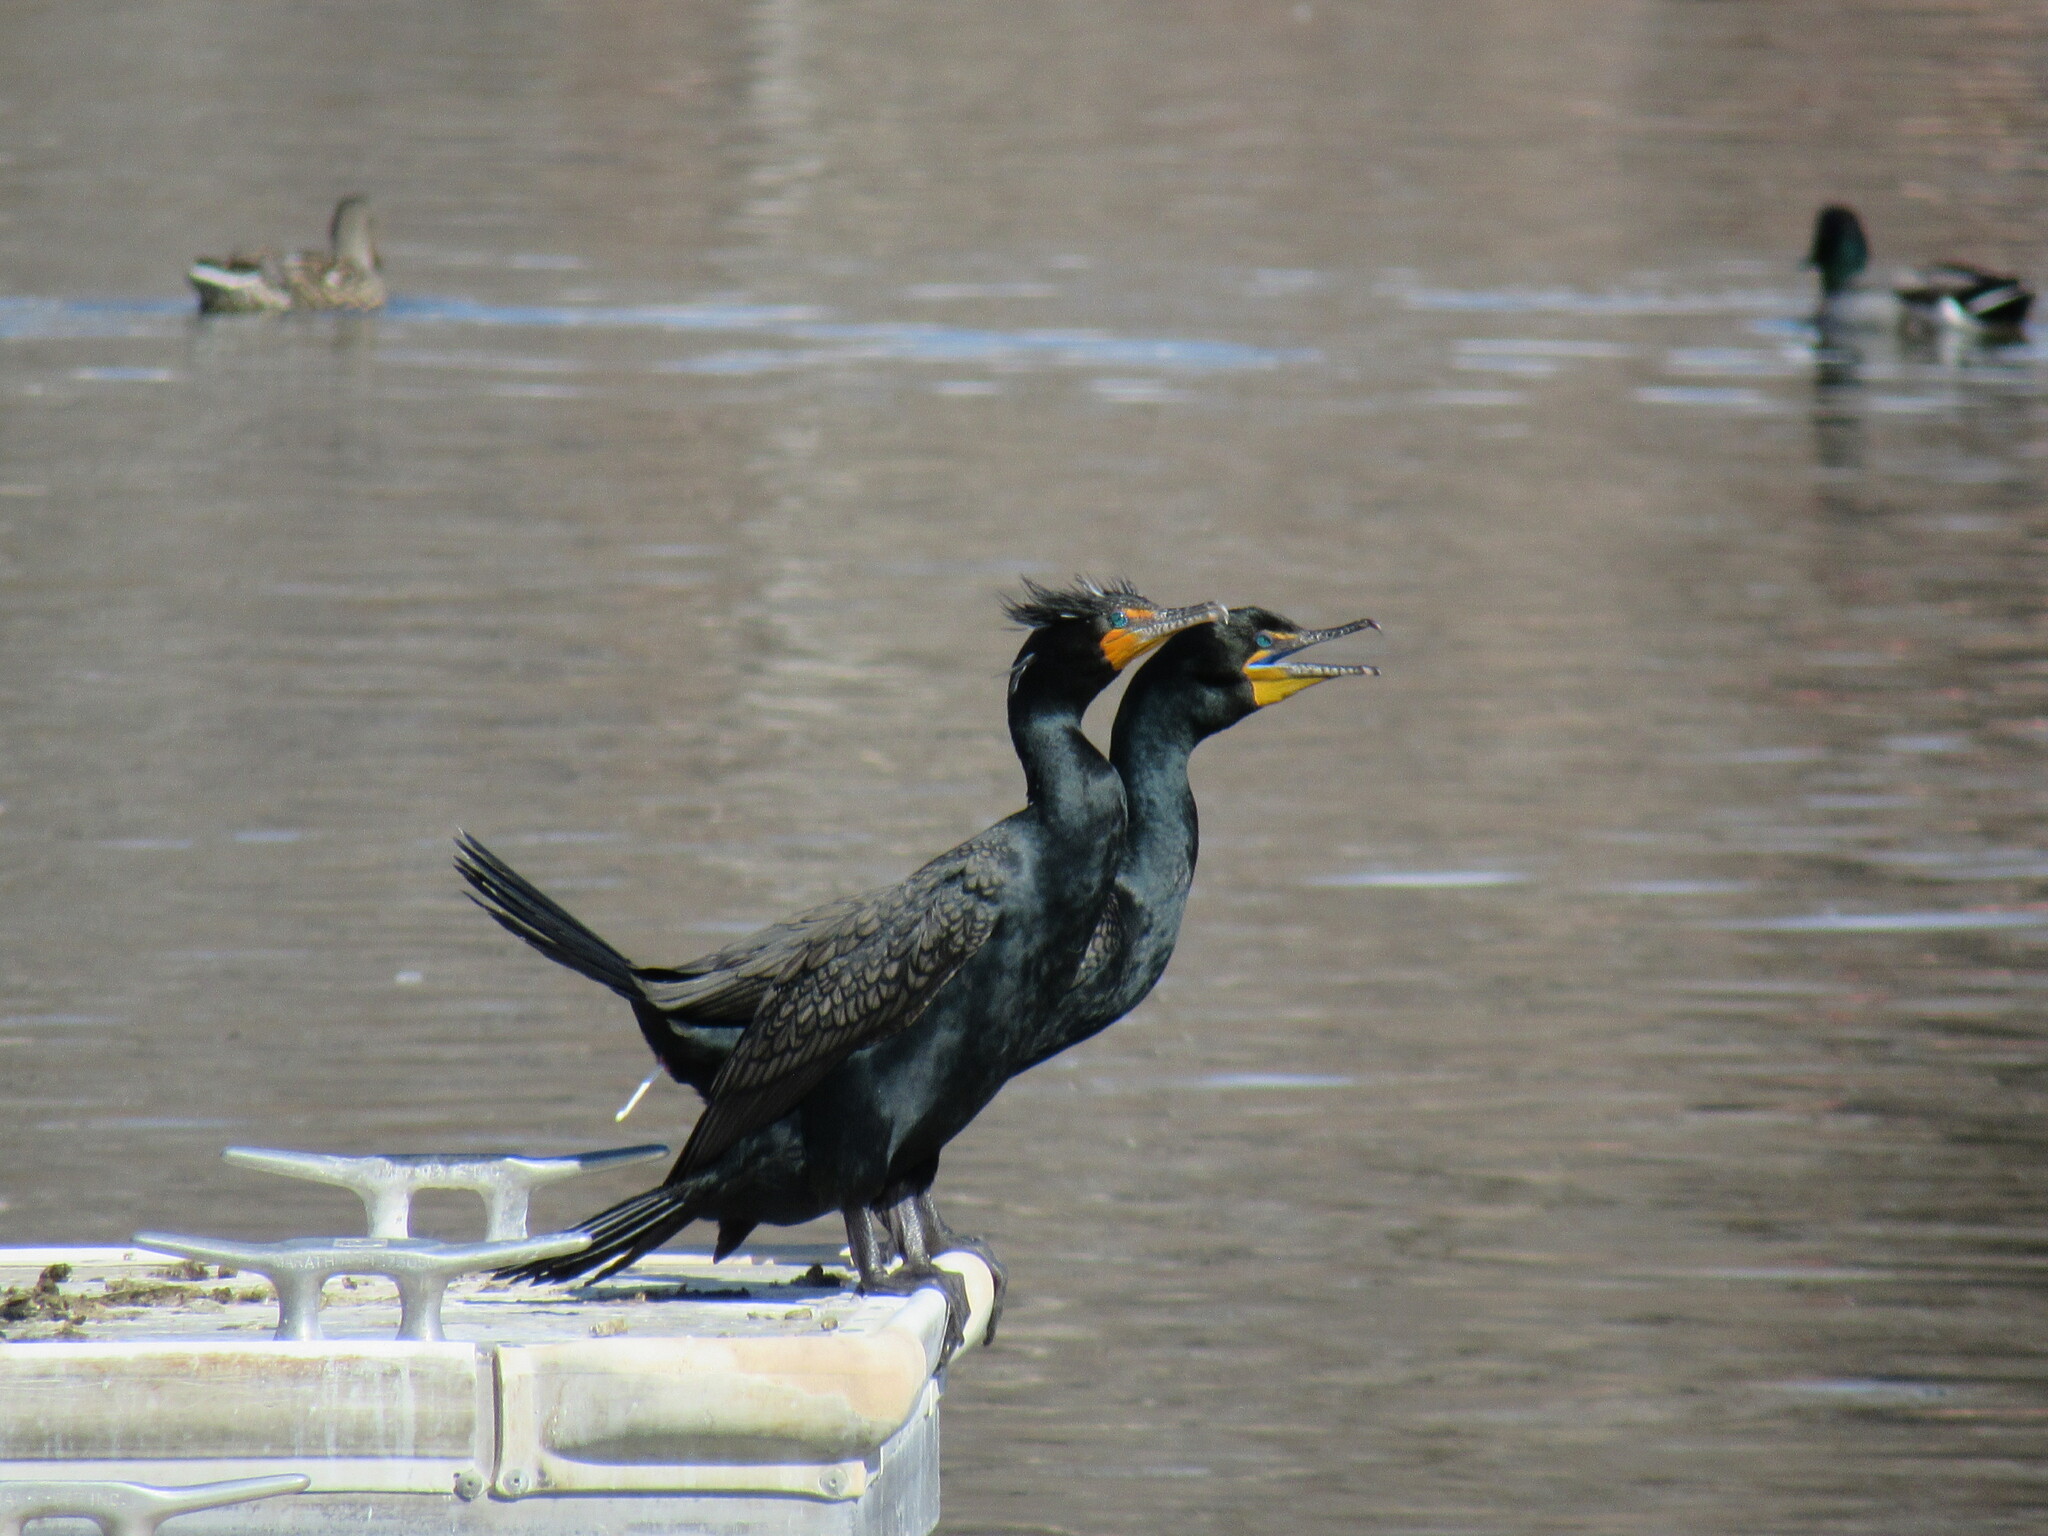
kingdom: Animalia
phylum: Chordata
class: Aves
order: Suliformes
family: Phalacrocoracidae
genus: Phalacrocorax
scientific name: Phalacrocorax auritus
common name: Double-crested cormorant
